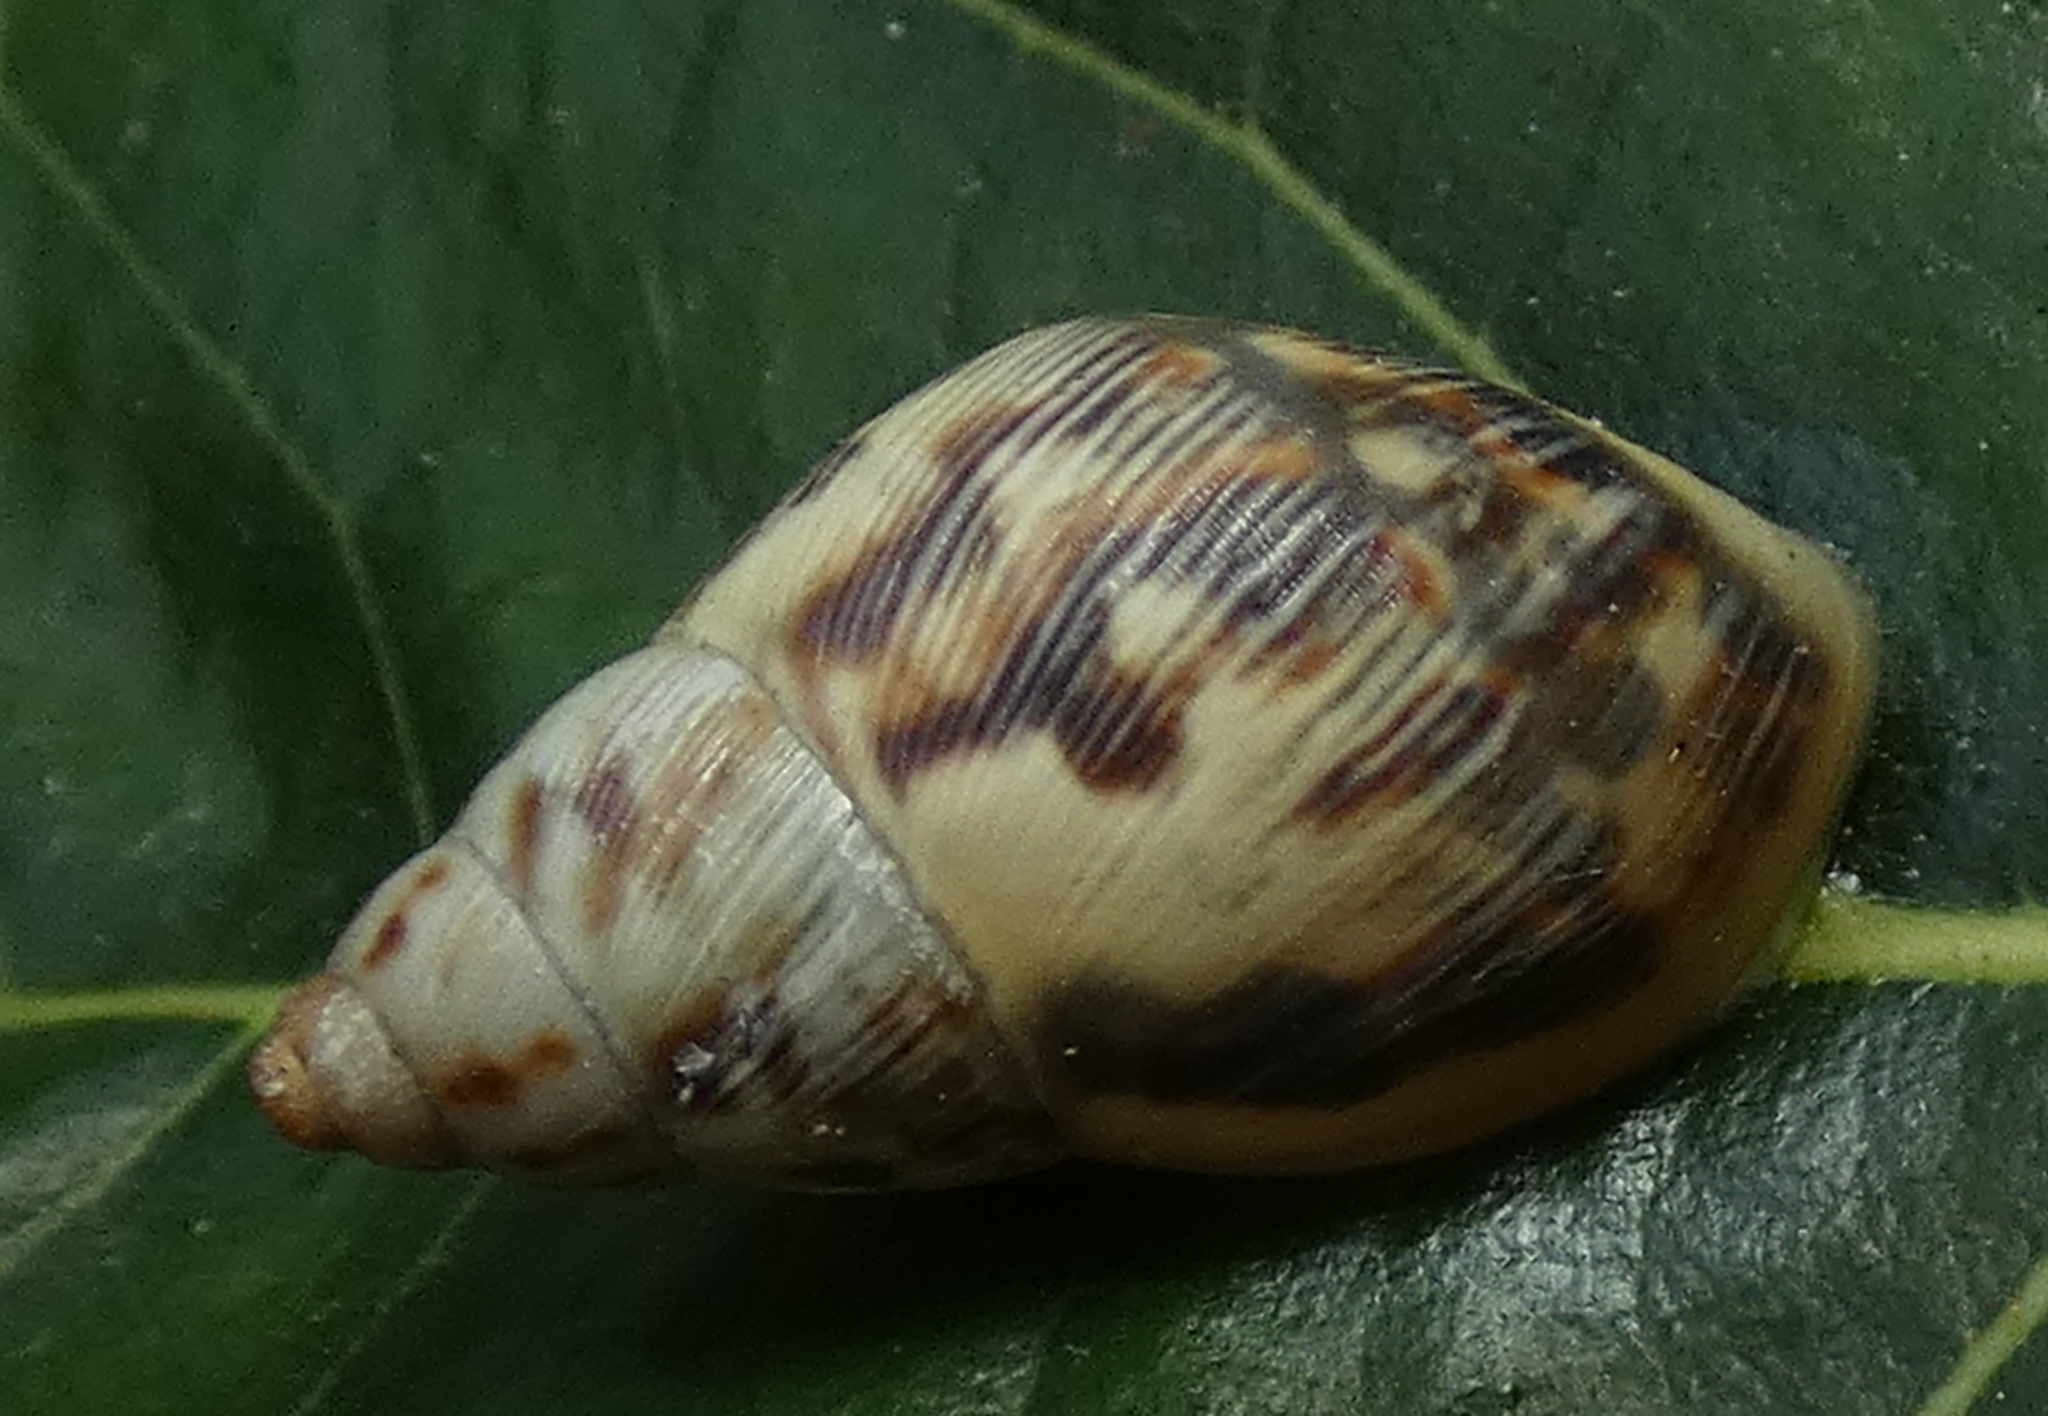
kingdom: Animalia
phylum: Mollusca
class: Gastropoda
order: Stylommatophora
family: Bulimulidae
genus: Drymaeus
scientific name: Drymaeus papyraceus
